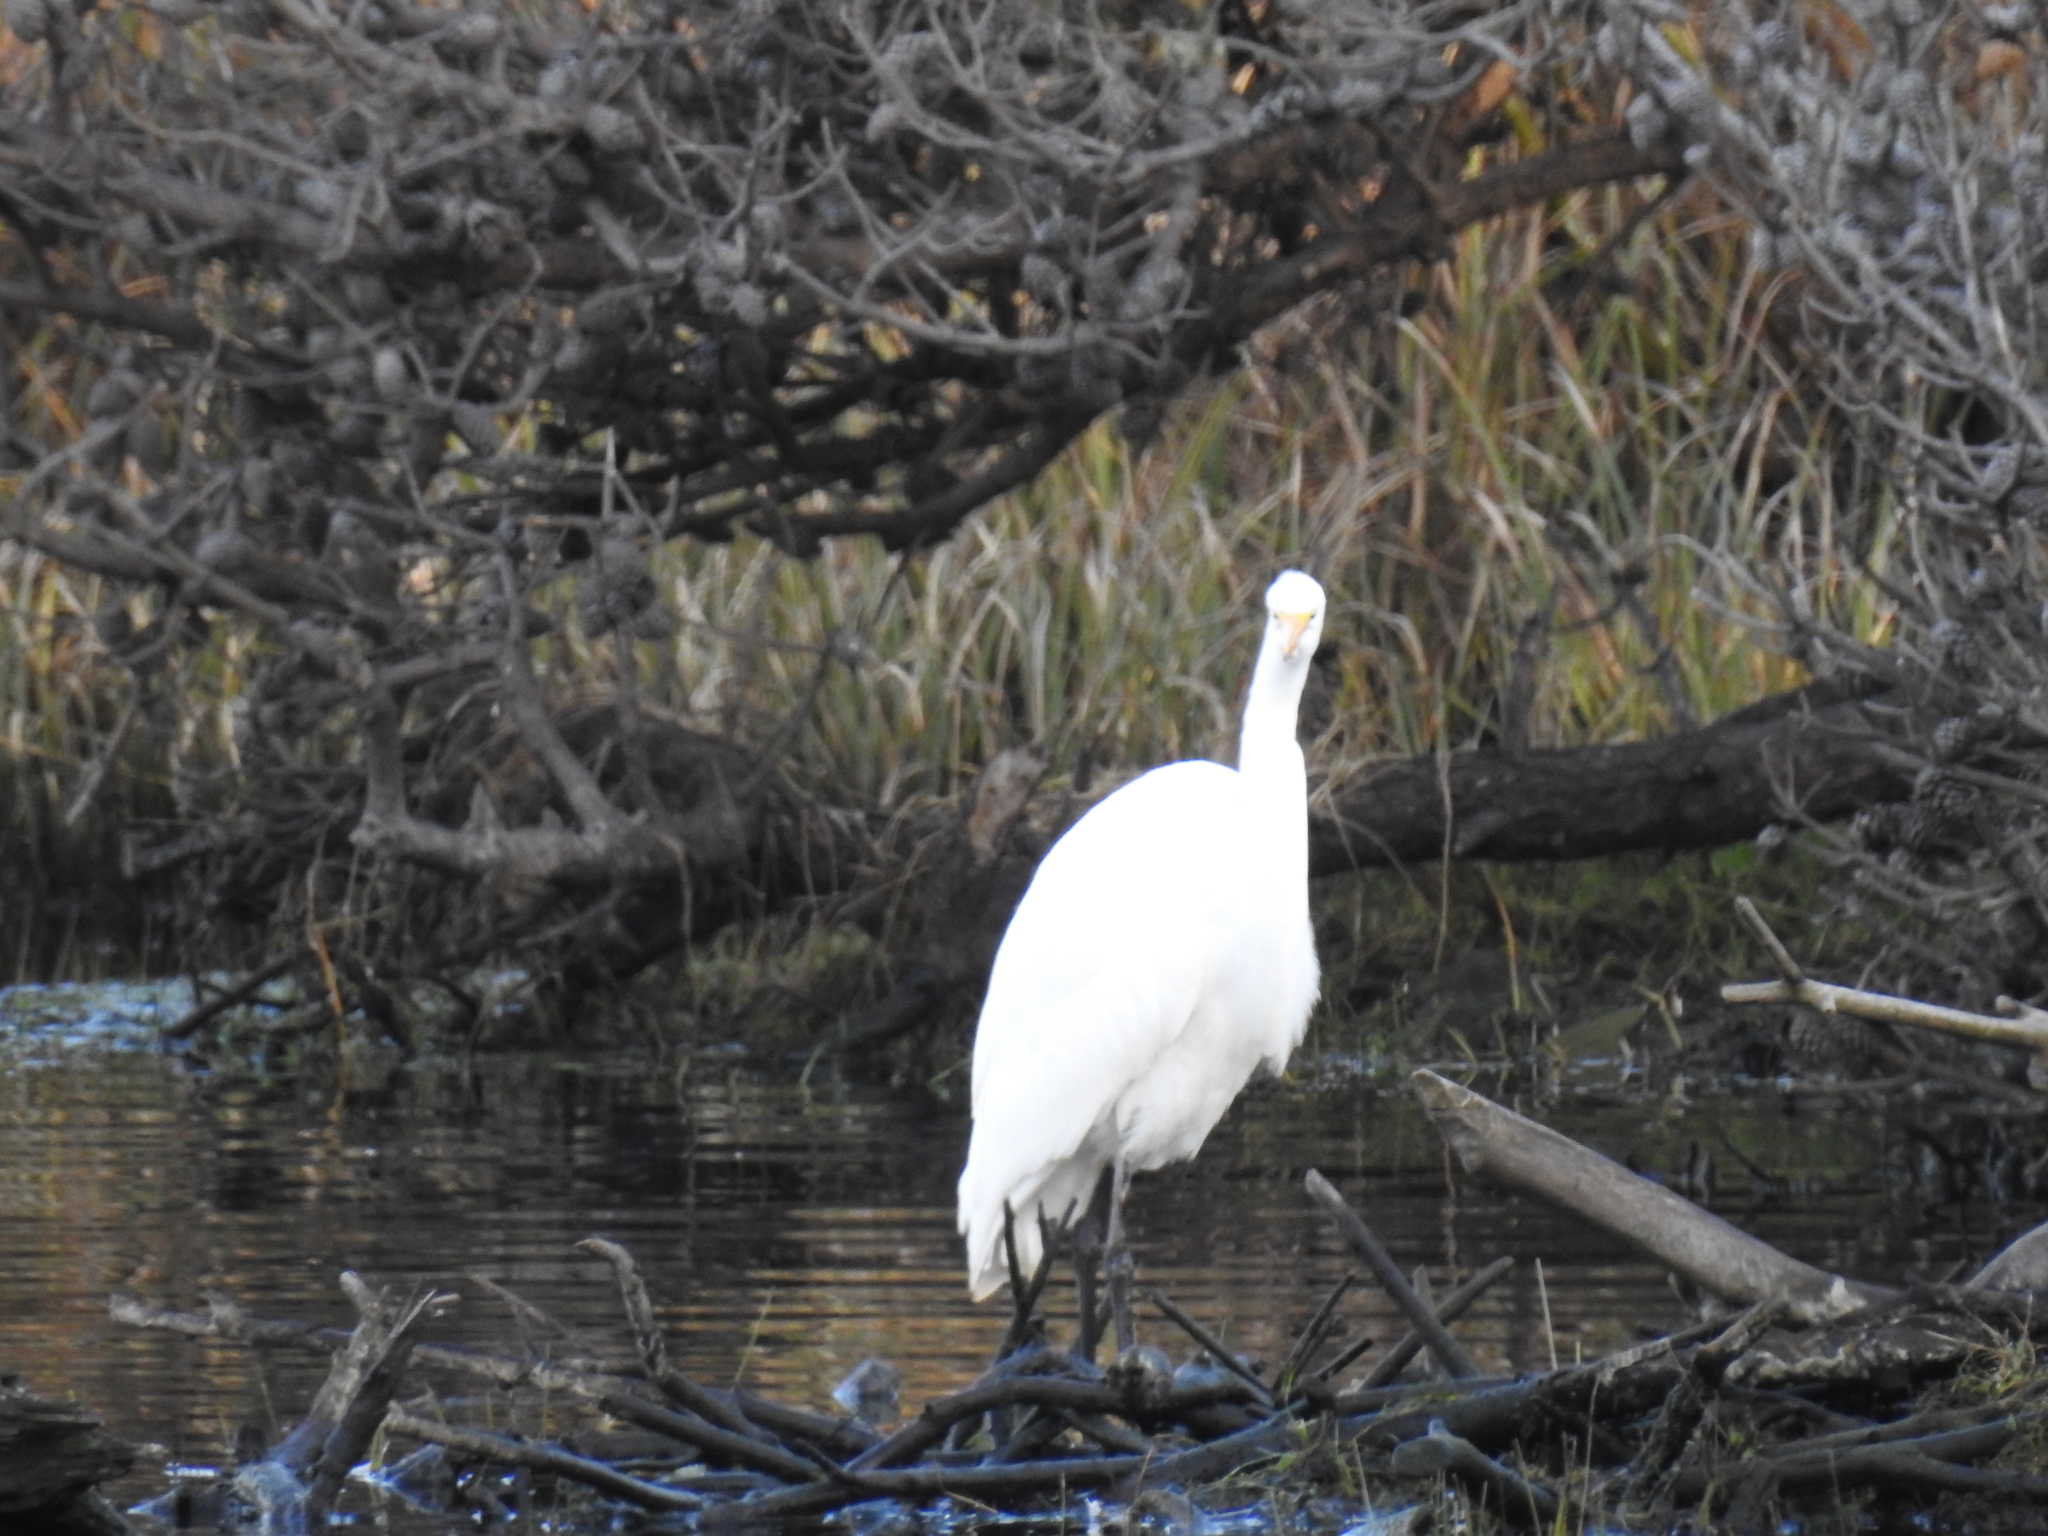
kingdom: Animalia
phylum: Chordata
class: Aves
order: Pelecaniformes
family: Ardeidae
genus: Ardea
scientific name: Ardea alba
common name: Great egret
